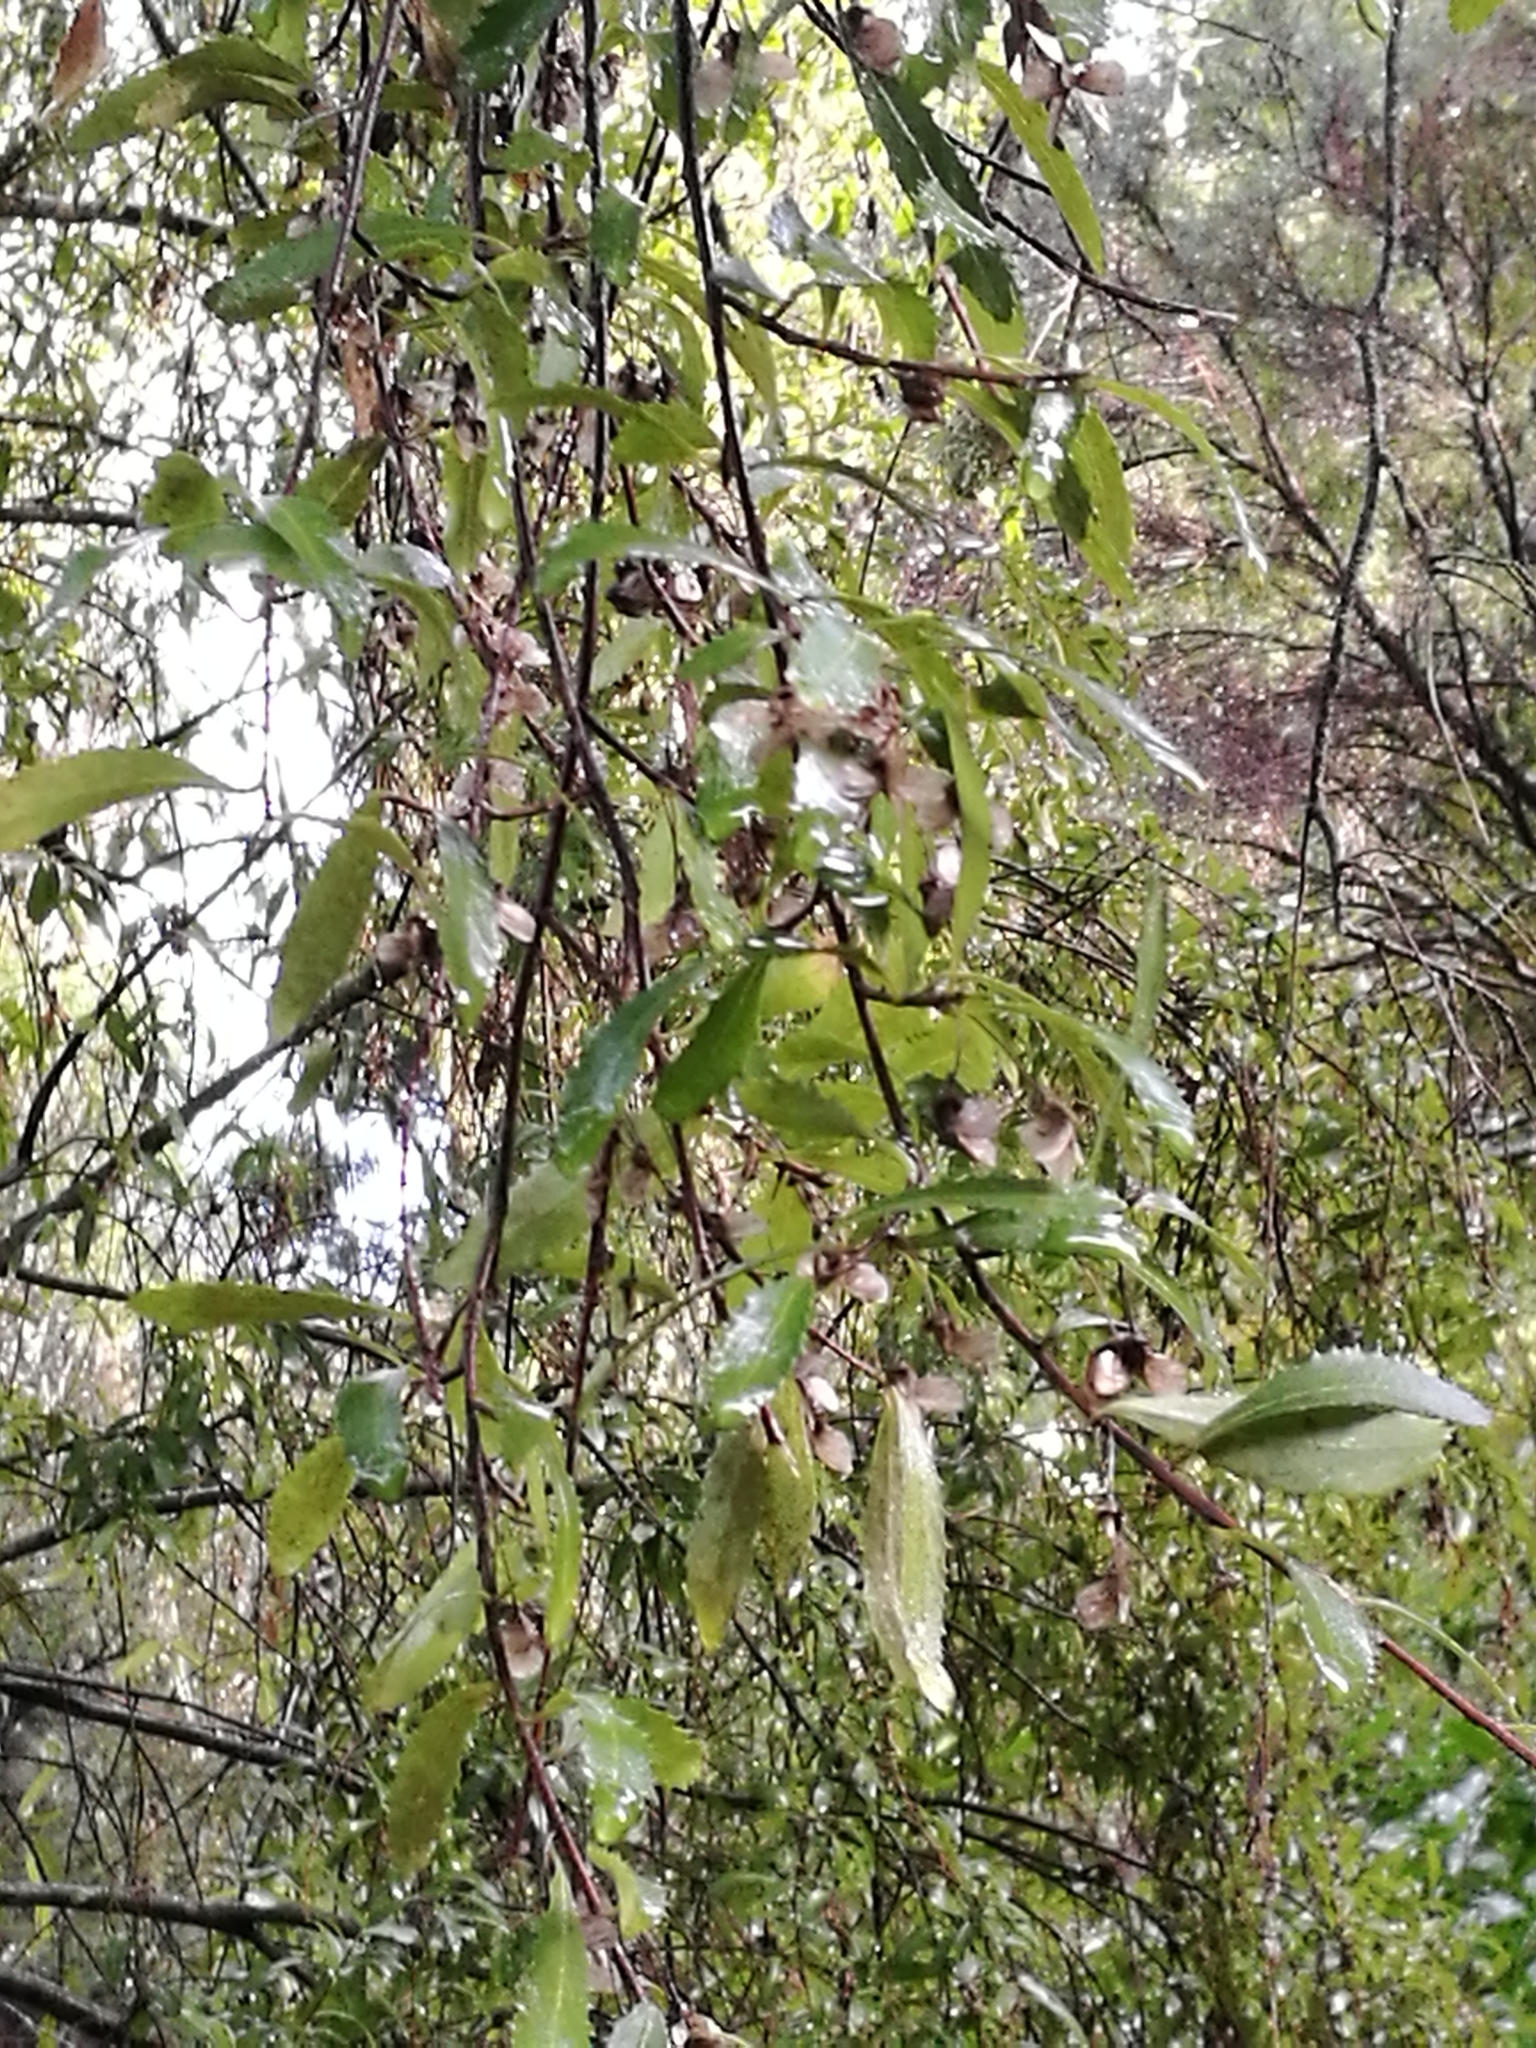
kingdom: Plantae
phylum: Tracheophyta
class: Magnoliopsida
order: Malvales
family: Malvaceae
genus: Hoheria
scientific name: Hoheria angustifolia
